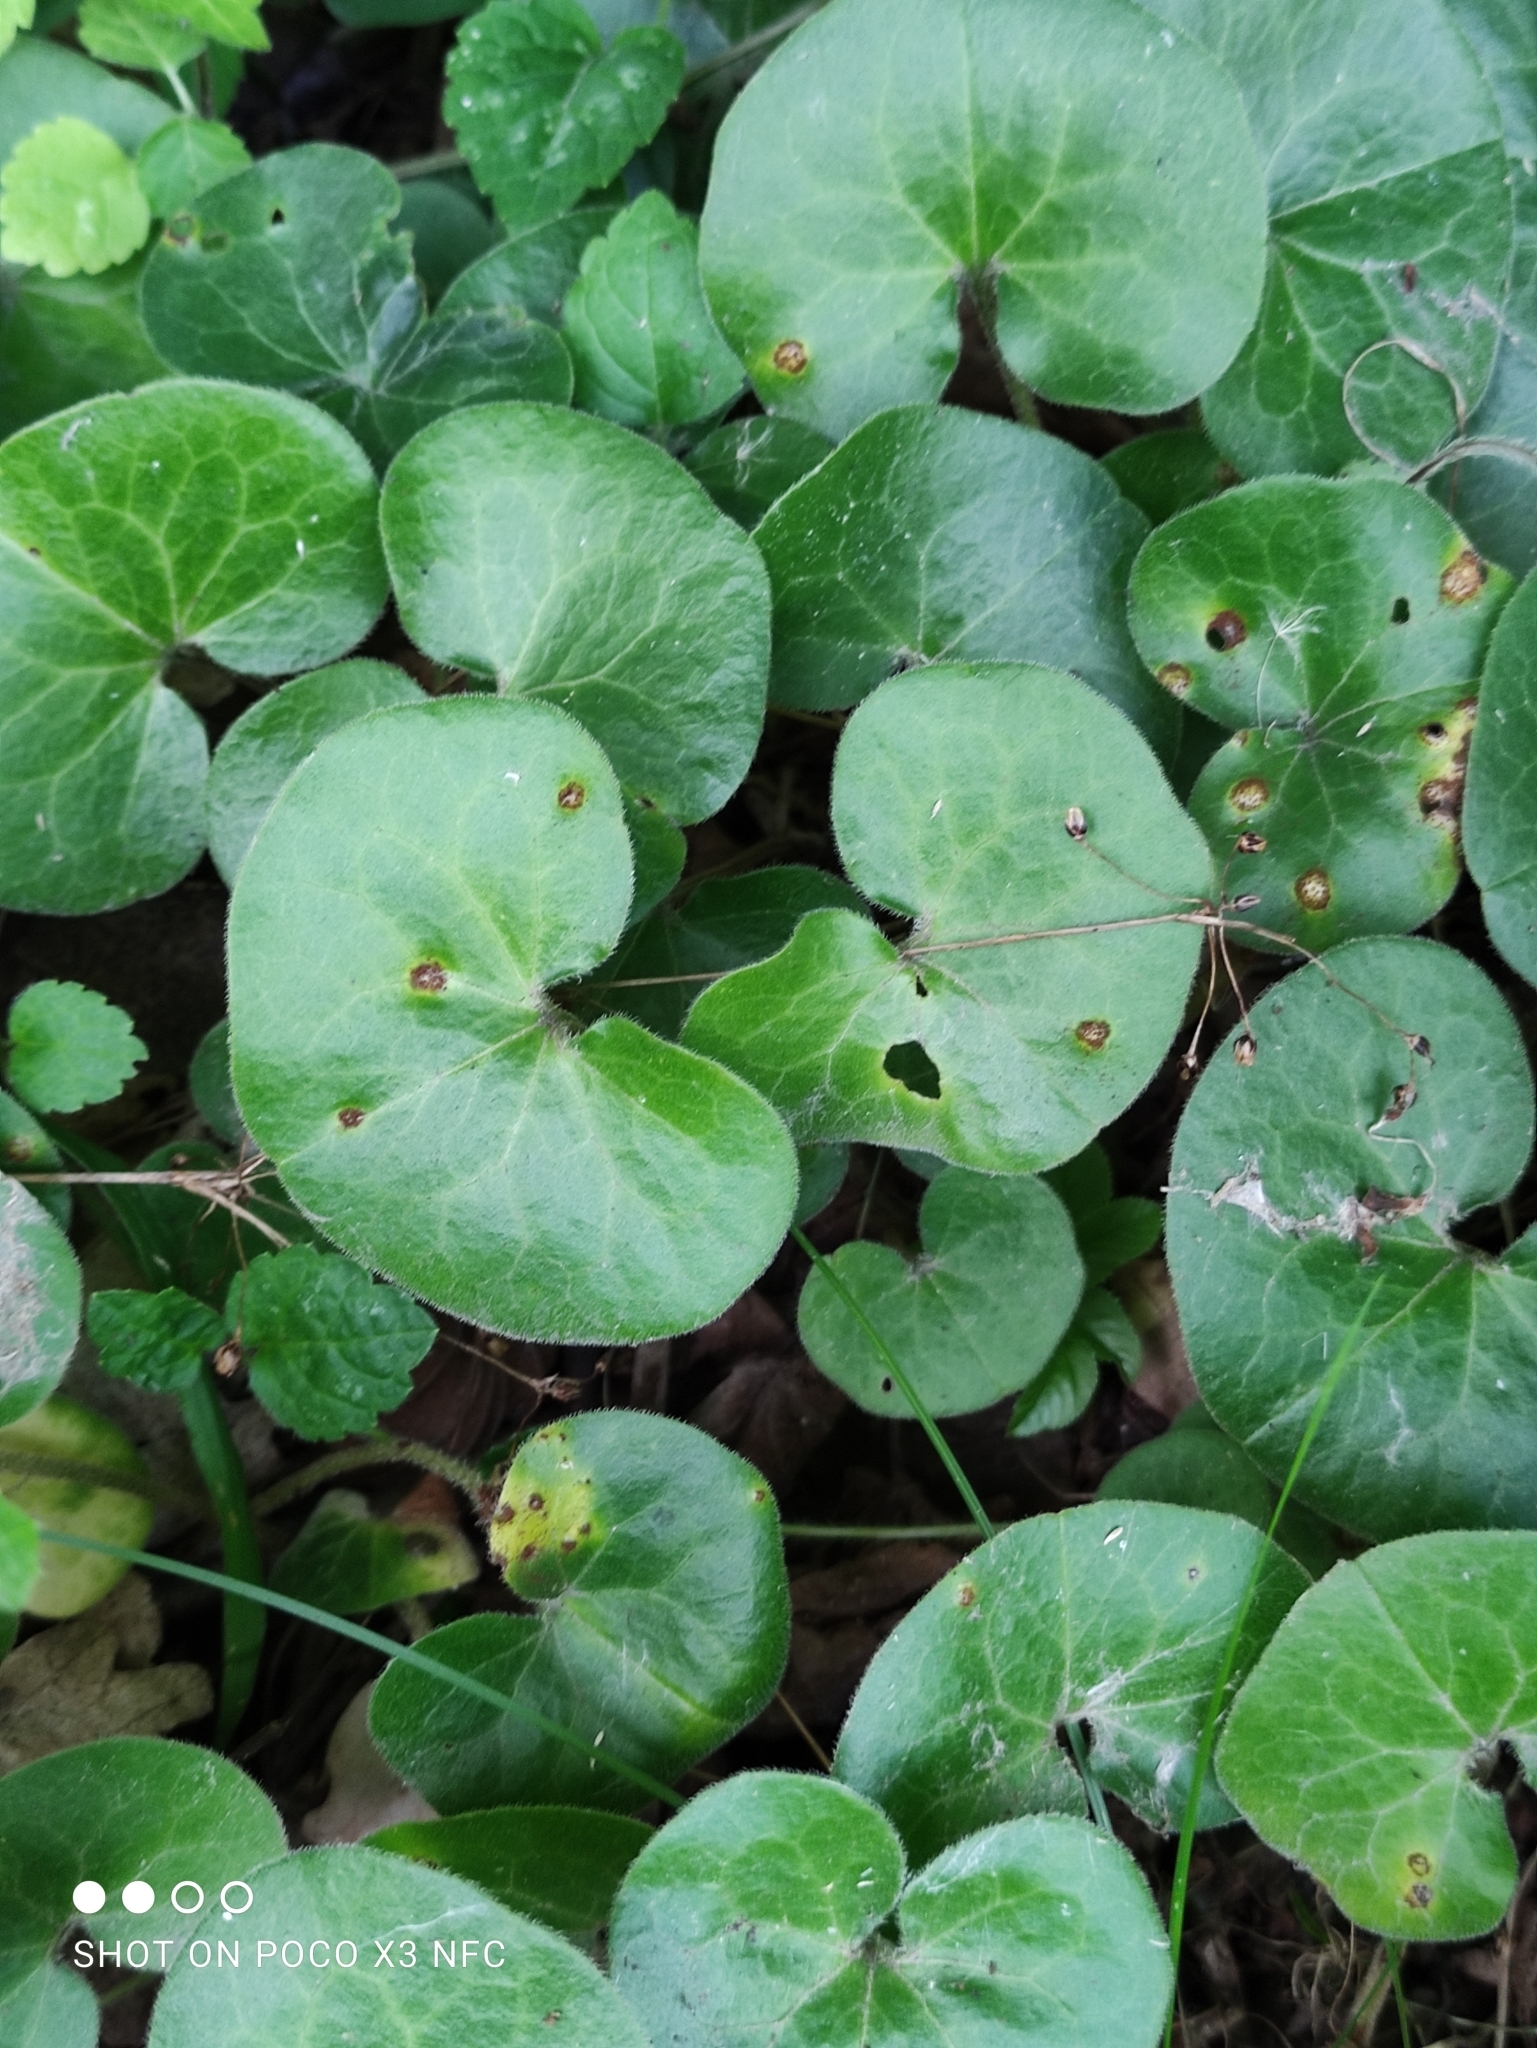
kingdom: Plantae
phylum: Tracheophyta
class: Magnoliopsida
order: Piperales
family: Aristolochiaceae
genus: Asarum
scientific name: Asarum europaeum
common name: Asarabacca
